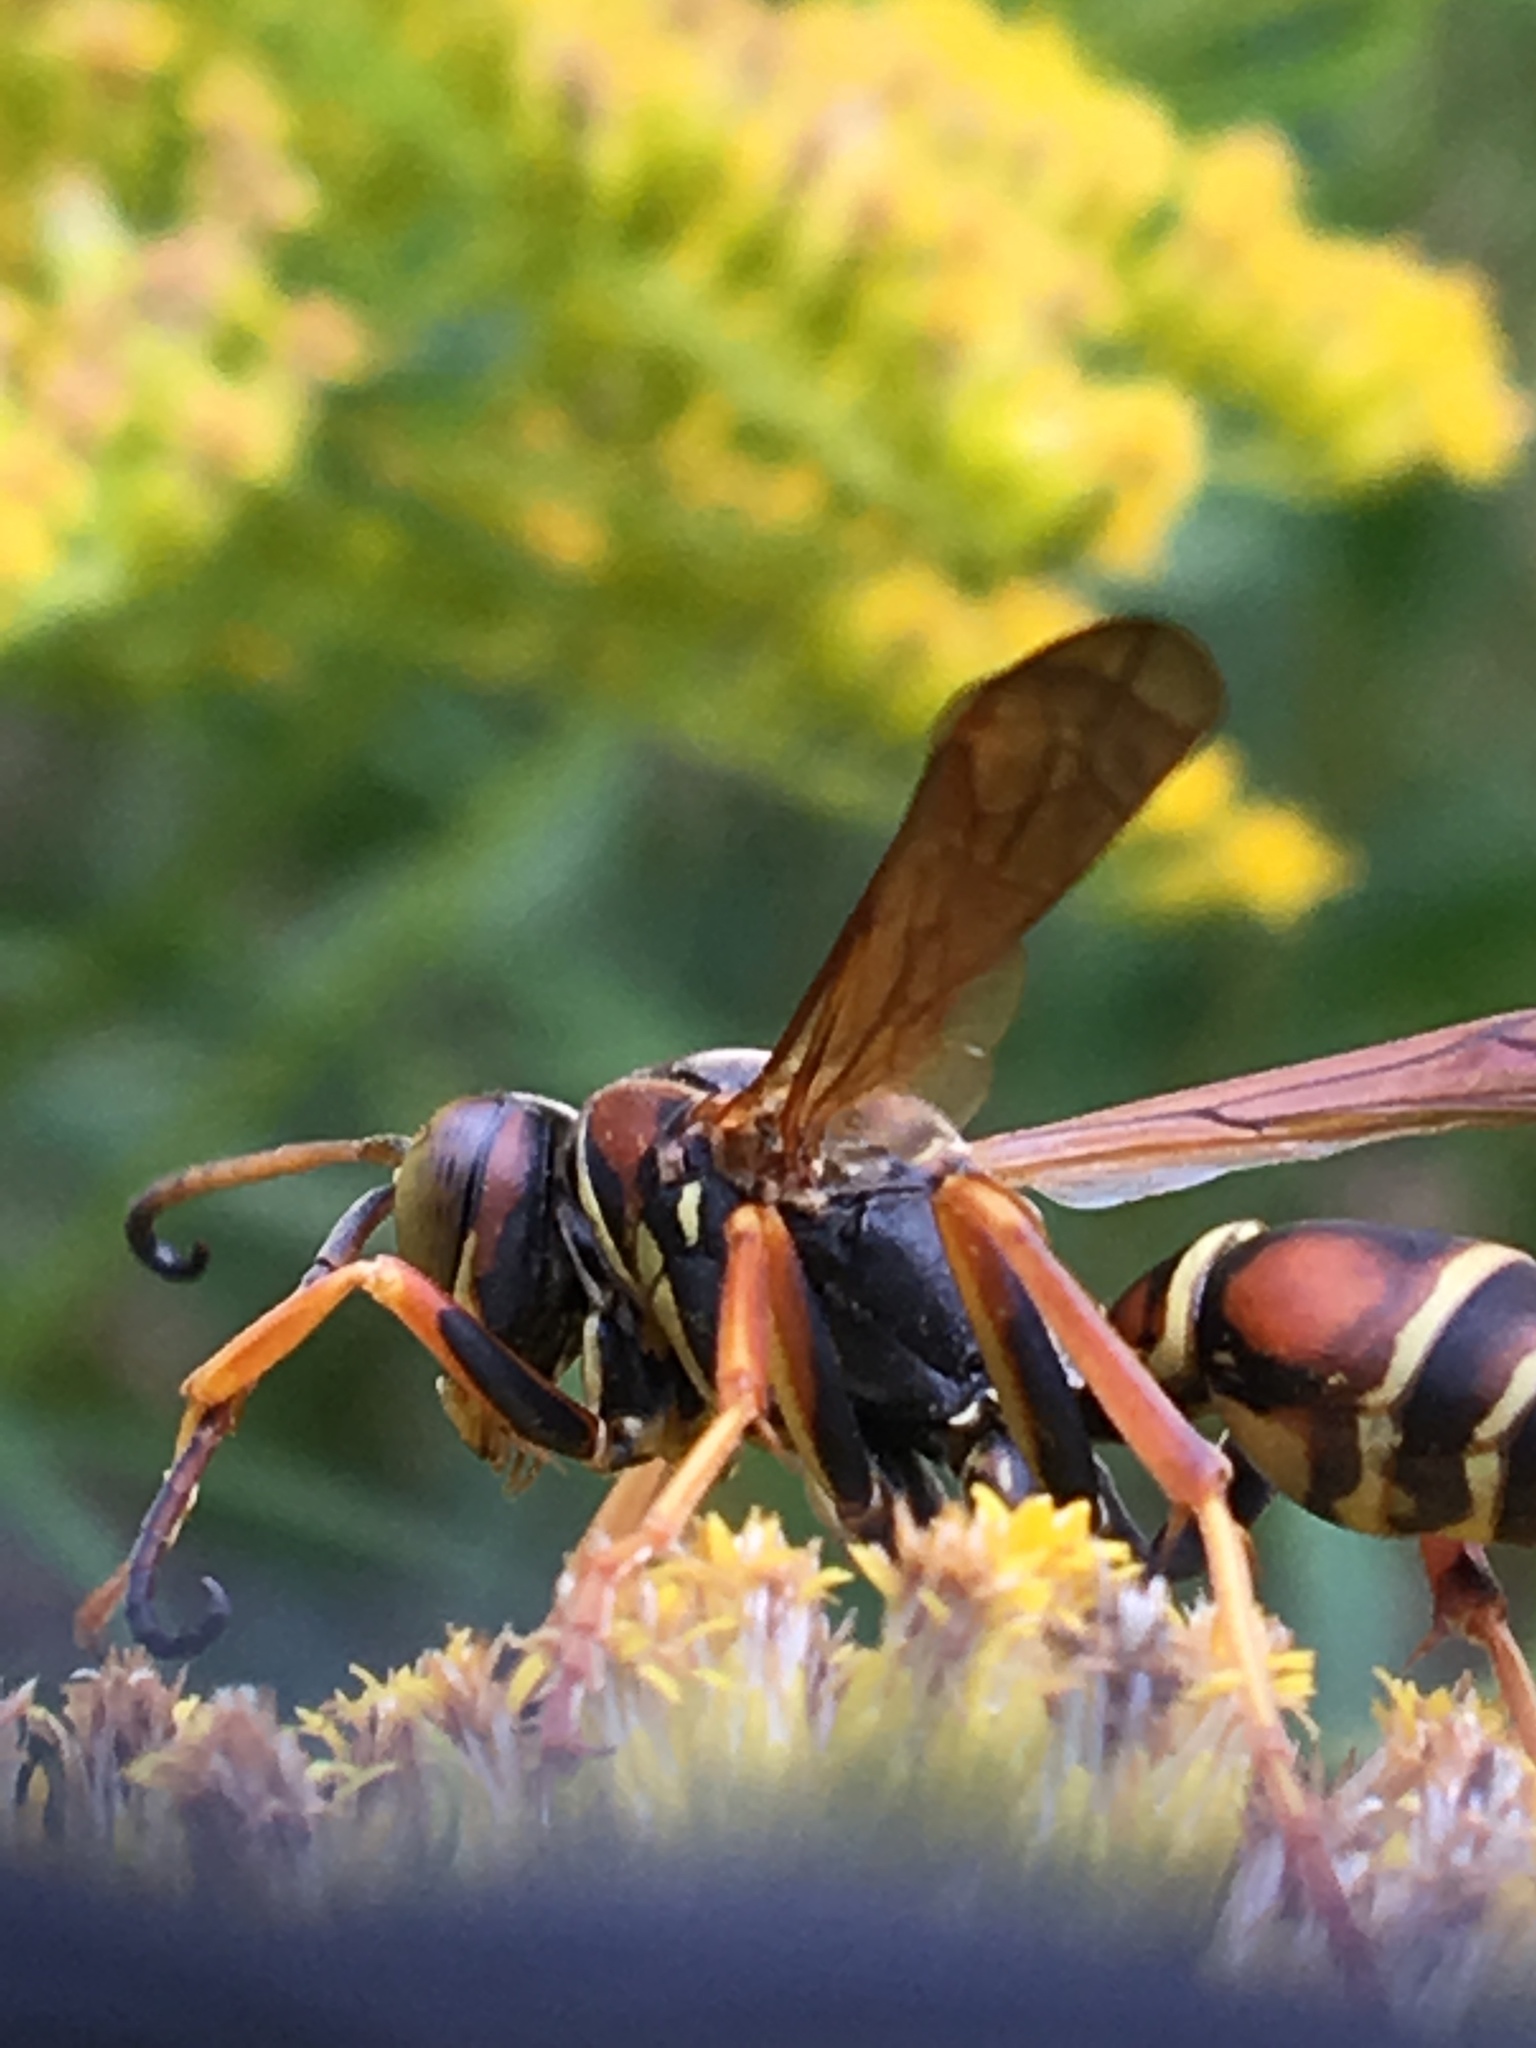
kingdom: Animalia
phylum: Arthropoda
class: Insecta
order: Hymenoptera
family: Eumenidae
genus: Polistes
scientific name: Polistes fuscatus
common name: Dark paper wasp
